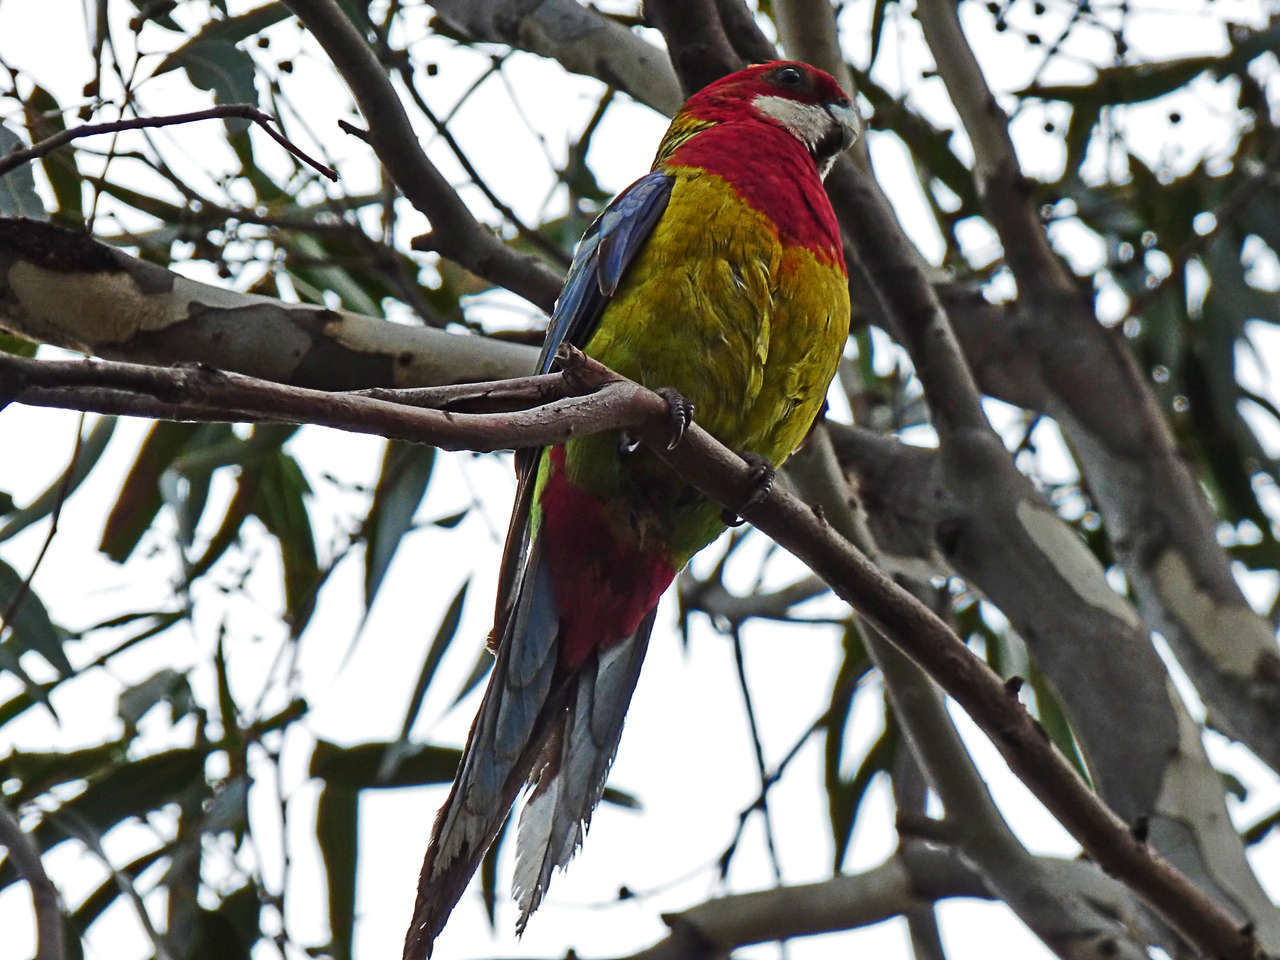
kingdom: Animalia
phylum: Chordata
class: Aves
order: Psittaciformes
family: Psittacidae
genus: Platycercus
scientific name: Platycercus eximius
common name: Eastern rosella
